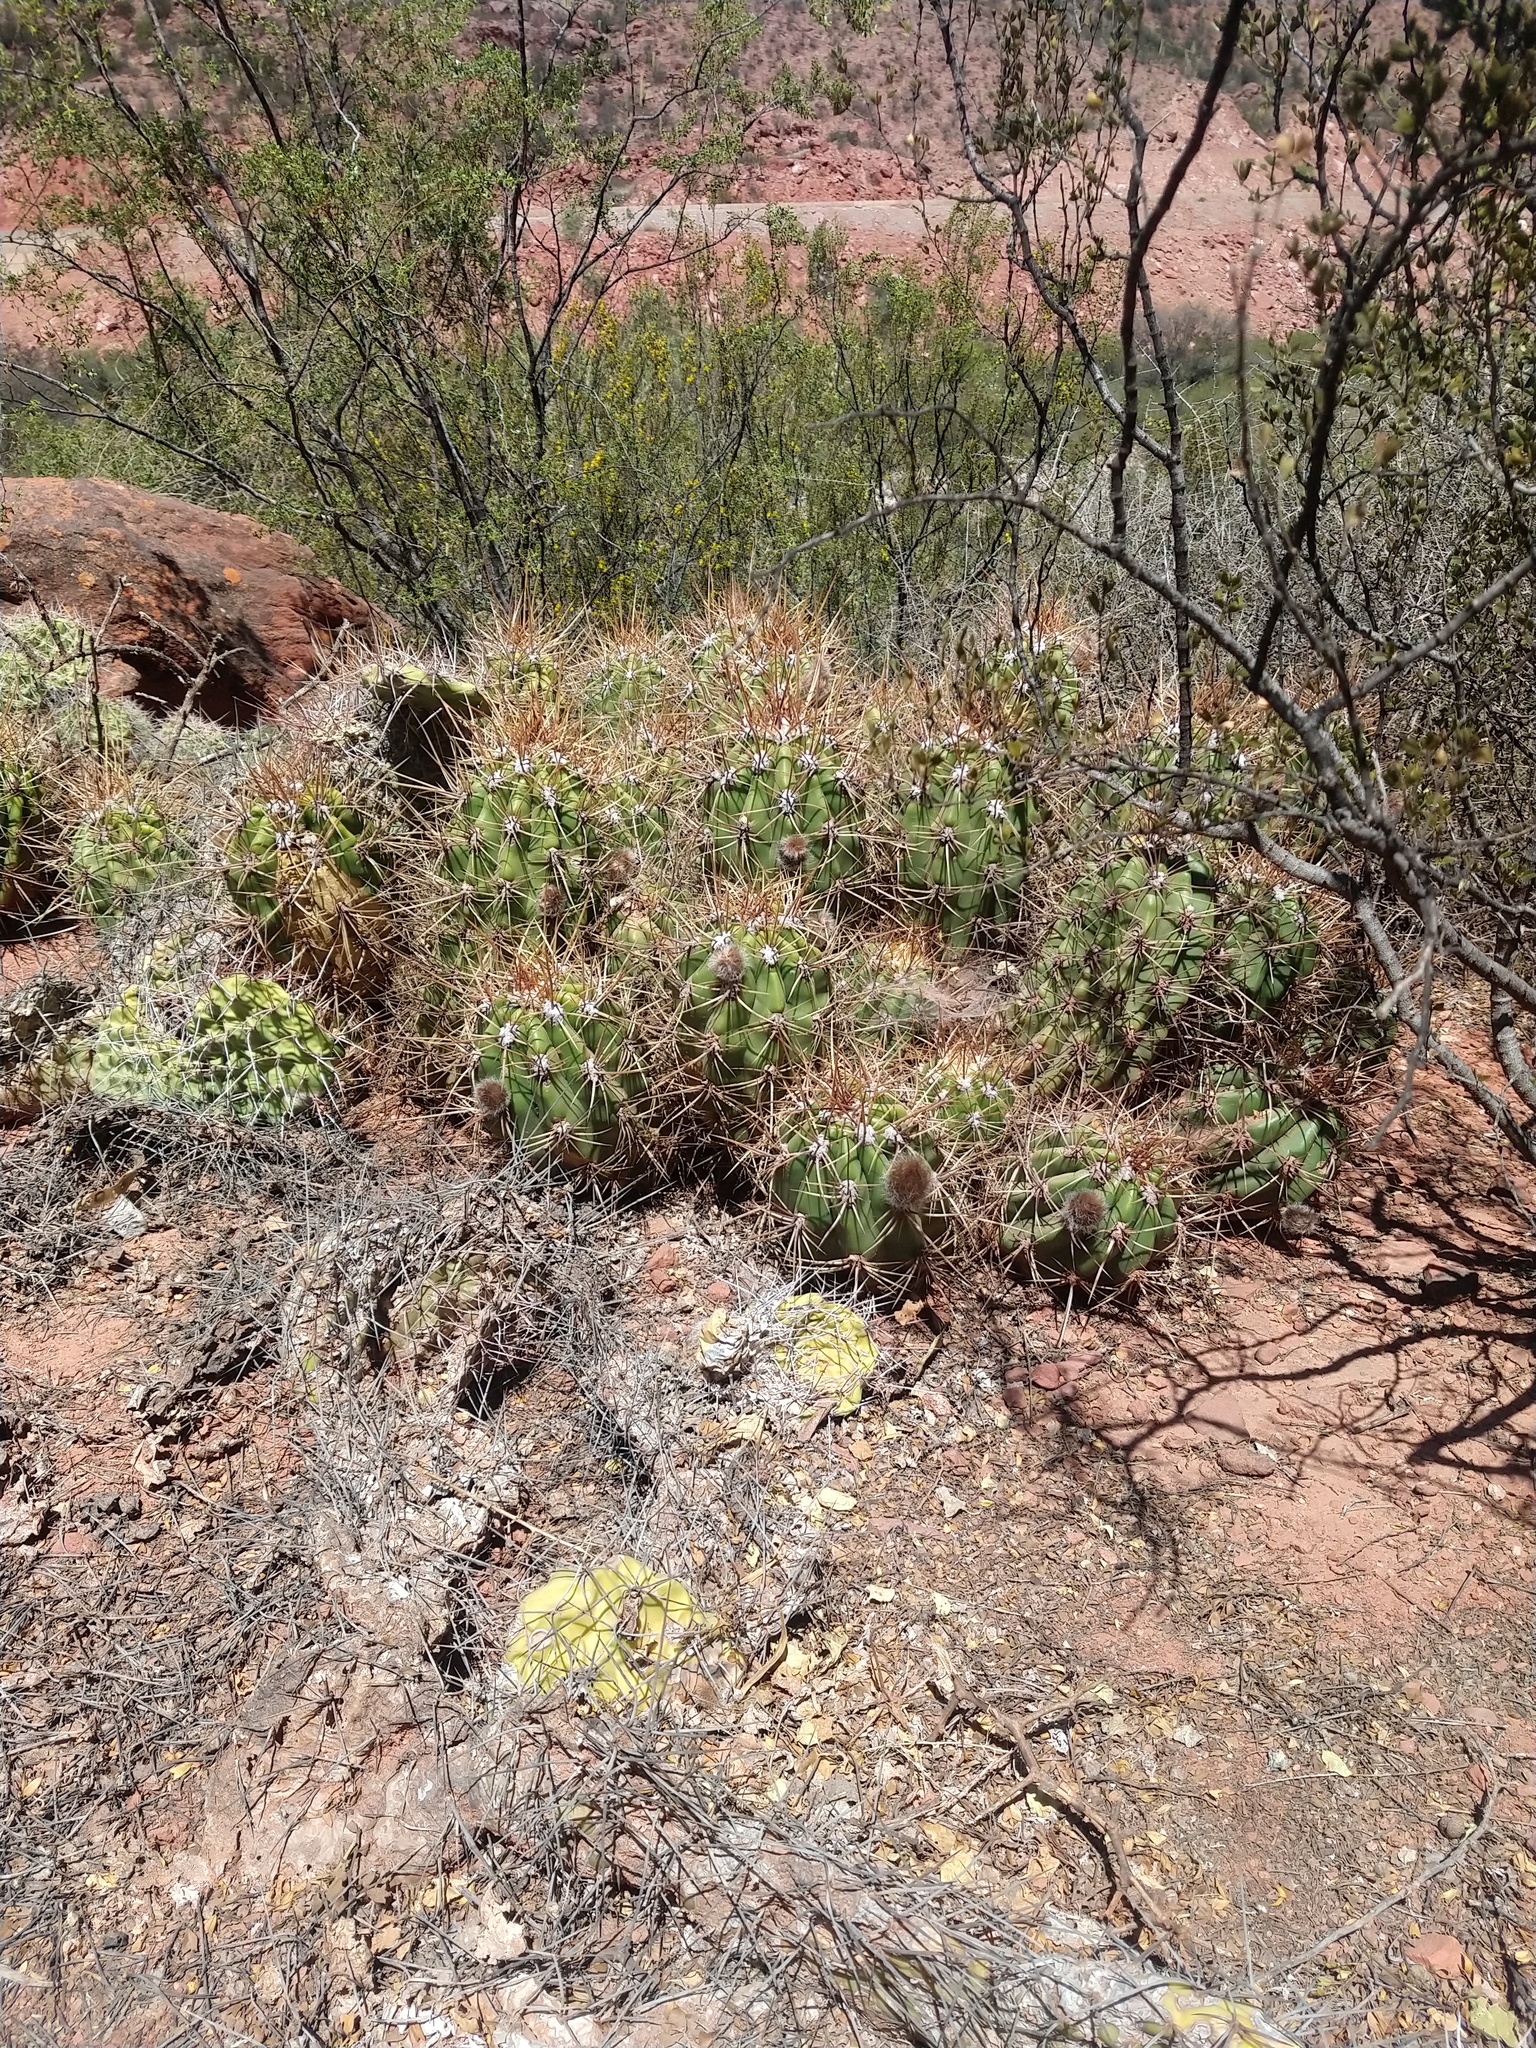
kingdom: Plantae
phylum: Tracheophyta
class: Magnoliopsida
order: Caryophyllales
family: Cactaceae
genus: Soehrensia
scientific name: Soehrensia candicans
